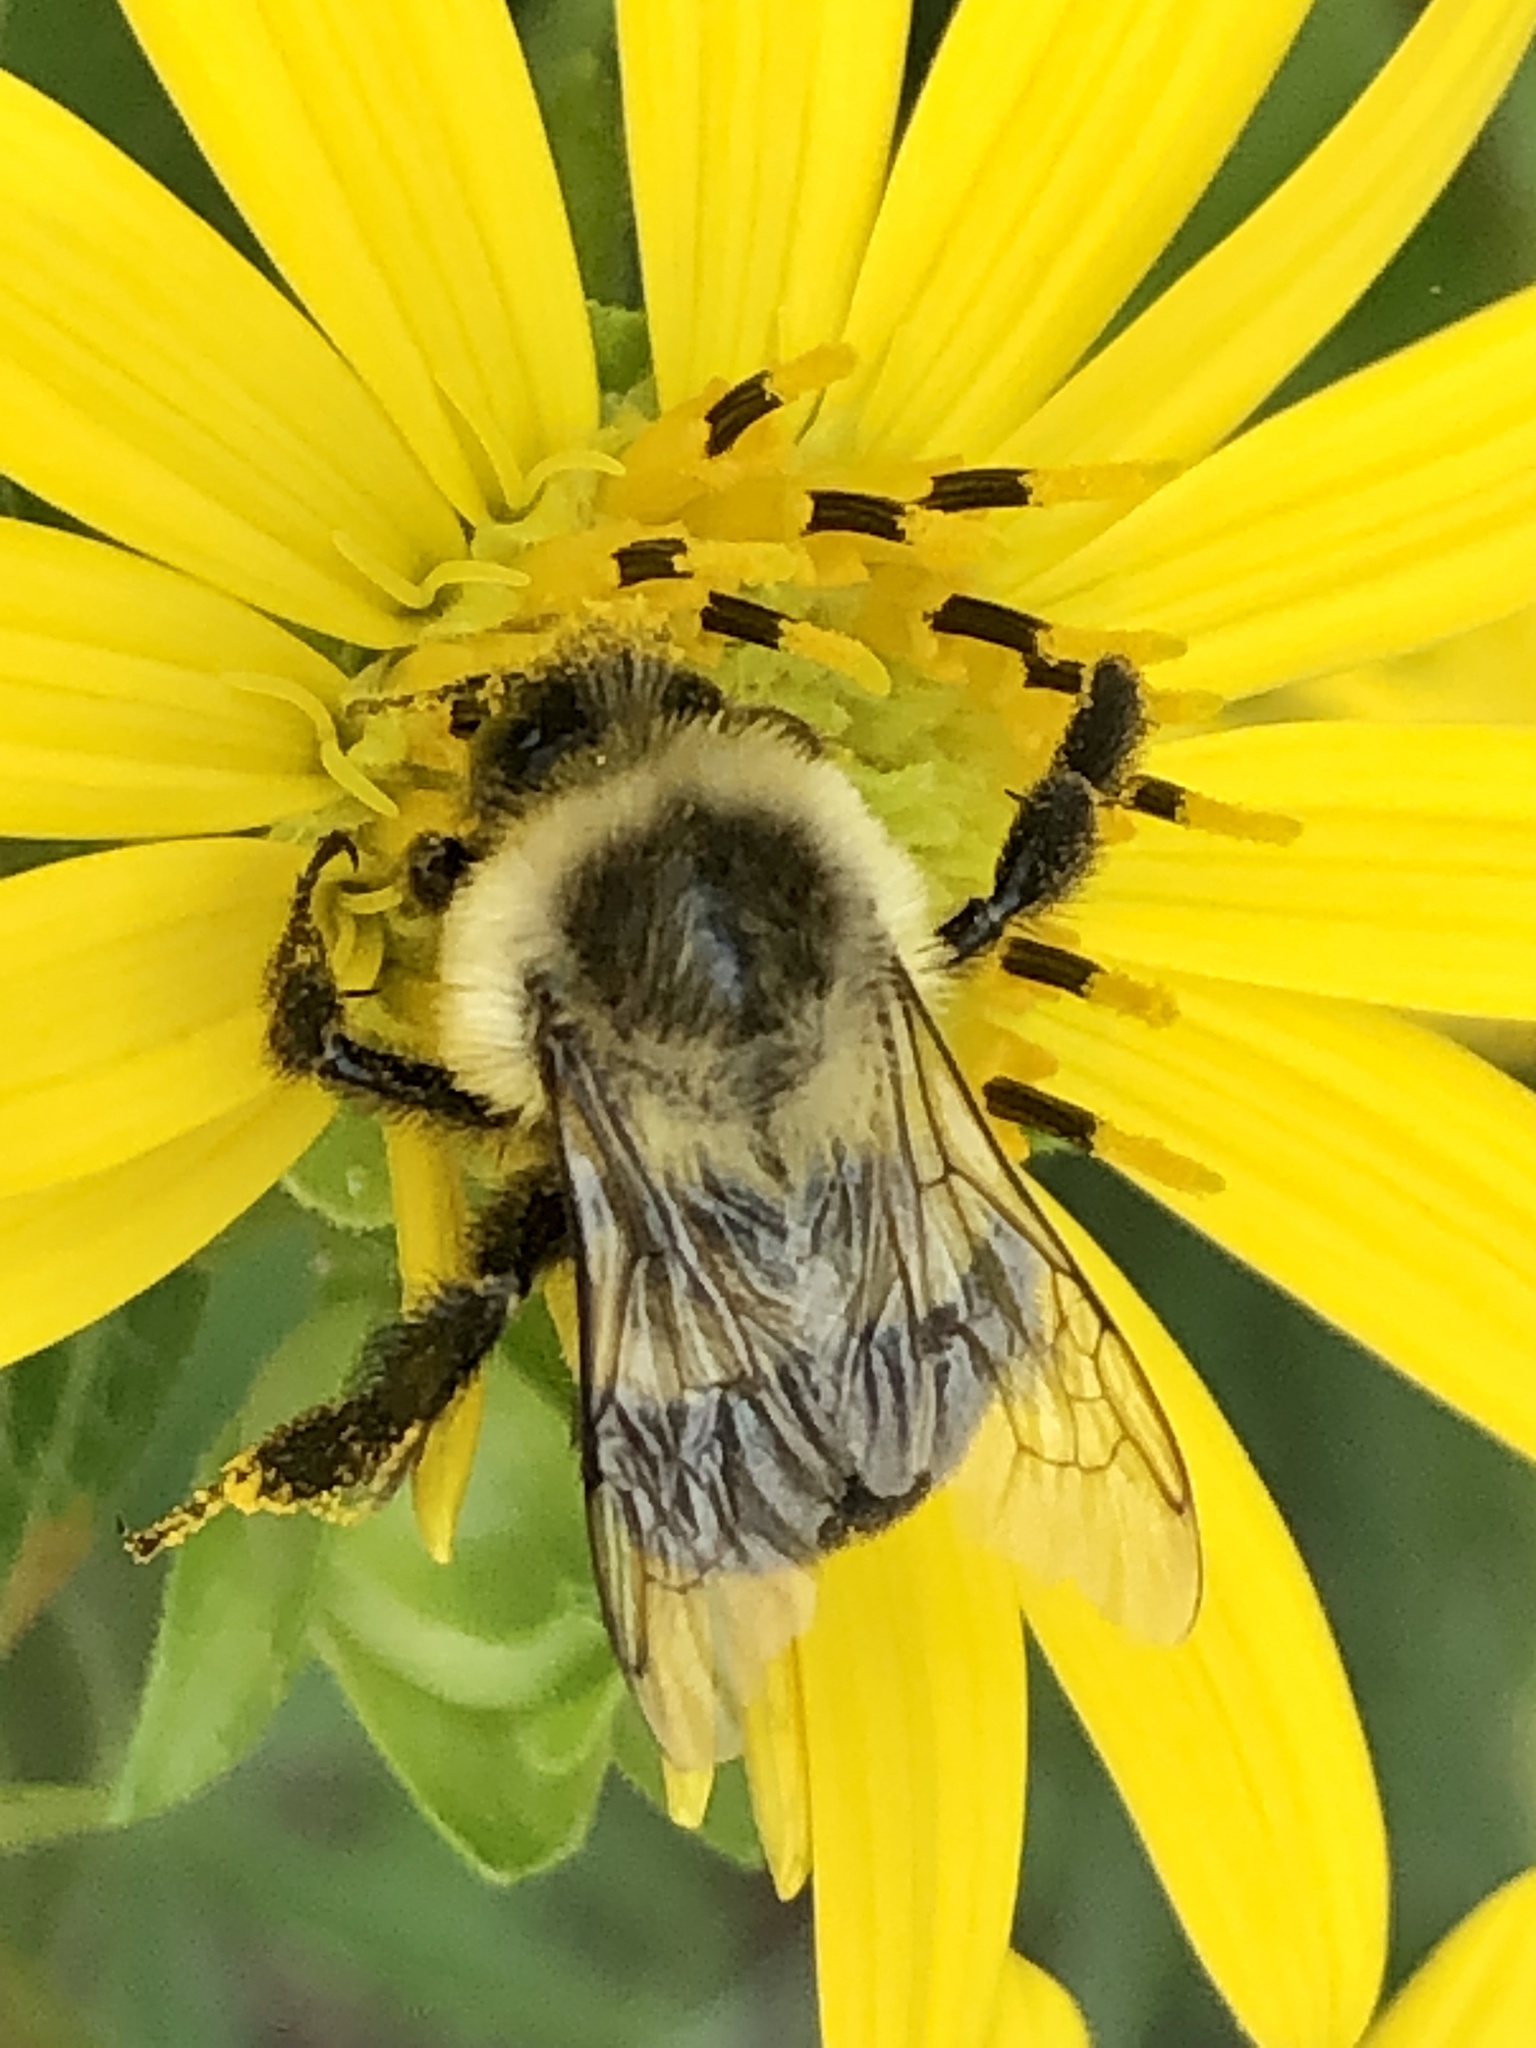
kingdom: Animalia
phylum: Arthropoda
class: Insecta
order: Hymenoptera
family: Apidae
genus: Bombus
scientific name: Bombus impatiens
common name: Common eastern bumble bee
